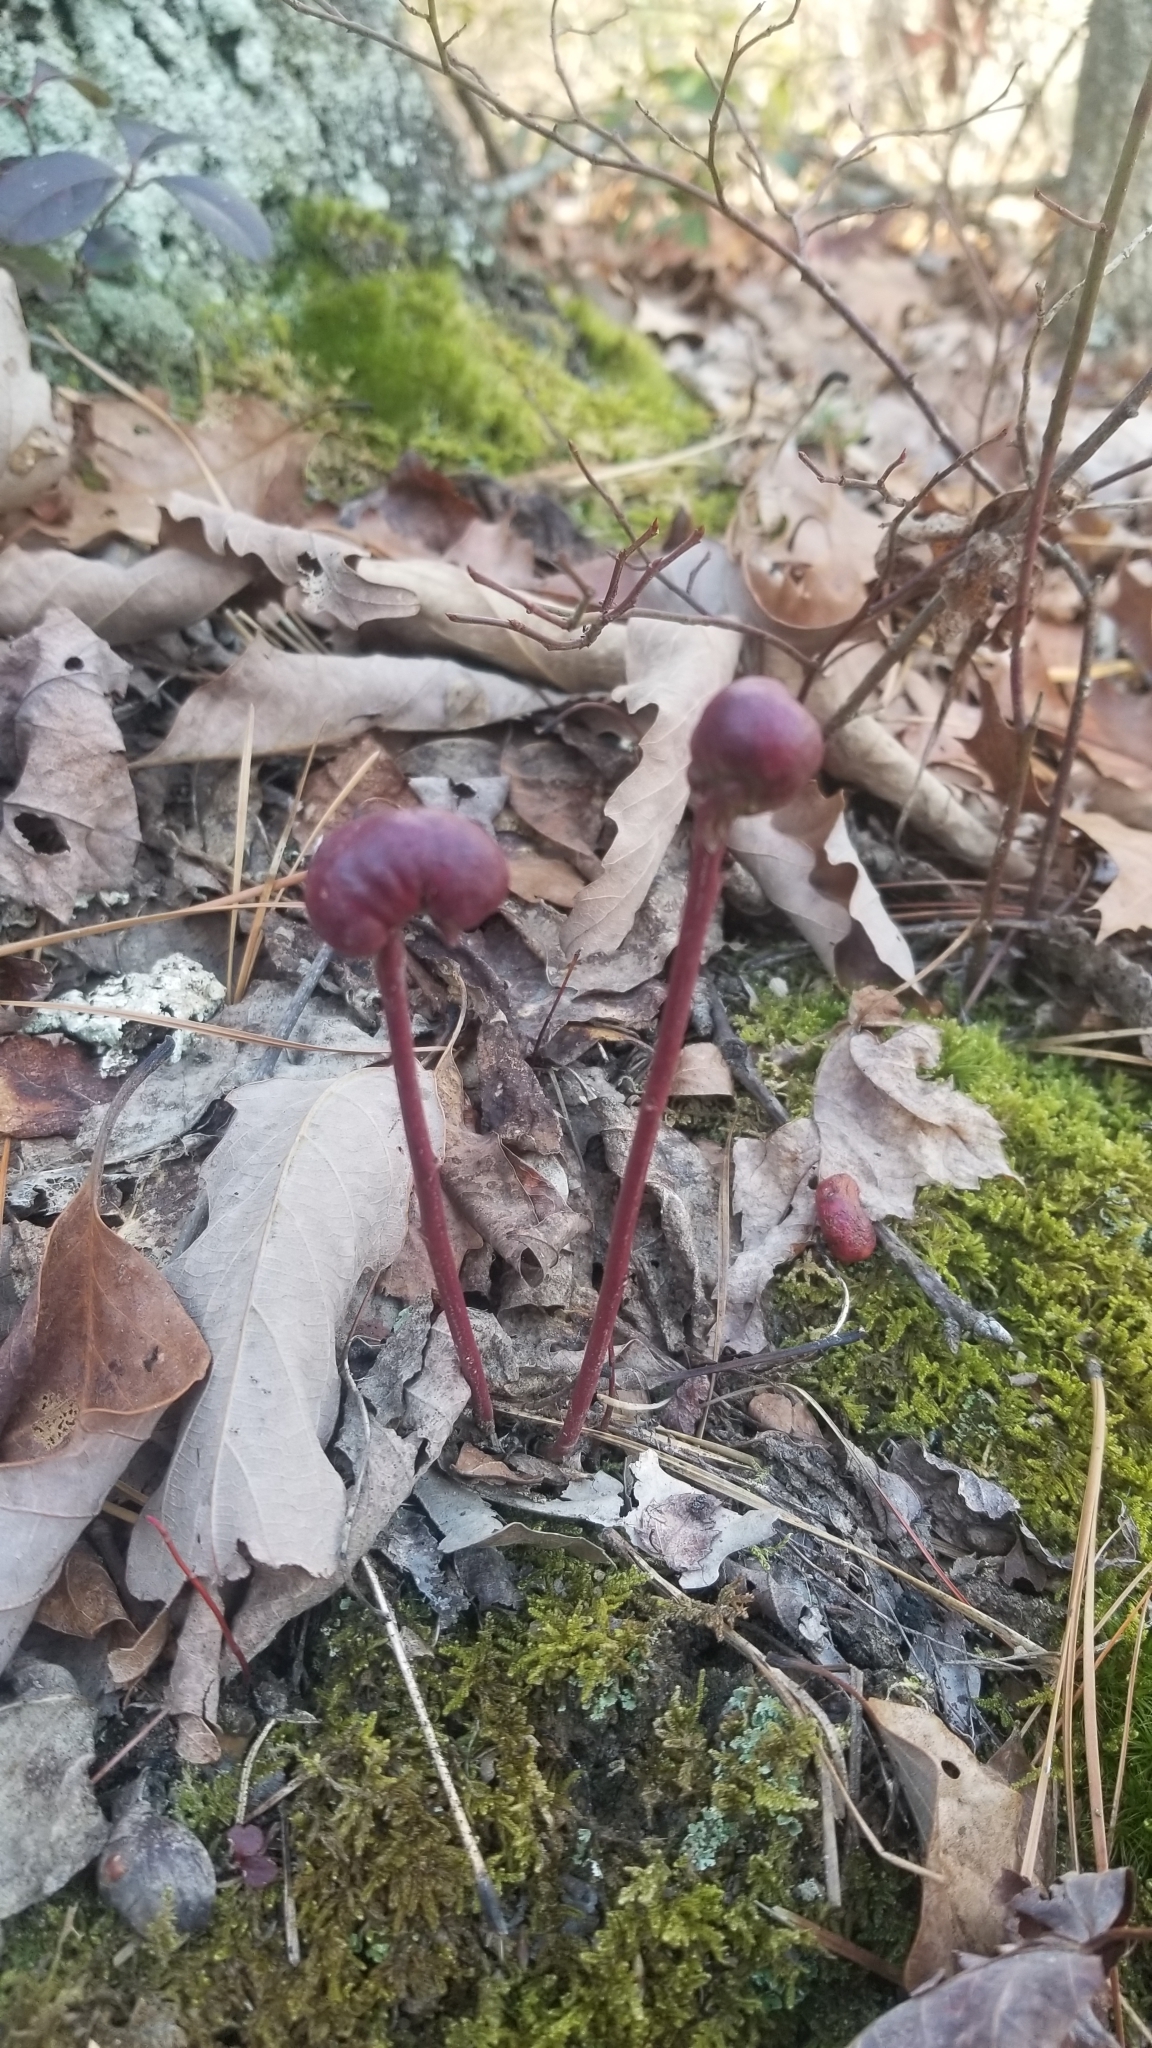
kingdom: Animalia
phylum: Arthropoda
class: Insecta
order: Hymenoptera
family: Pteromalidae
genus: Hemadas
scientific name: Hemadas nubilipennis
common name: Blueberry stem gall wasp
